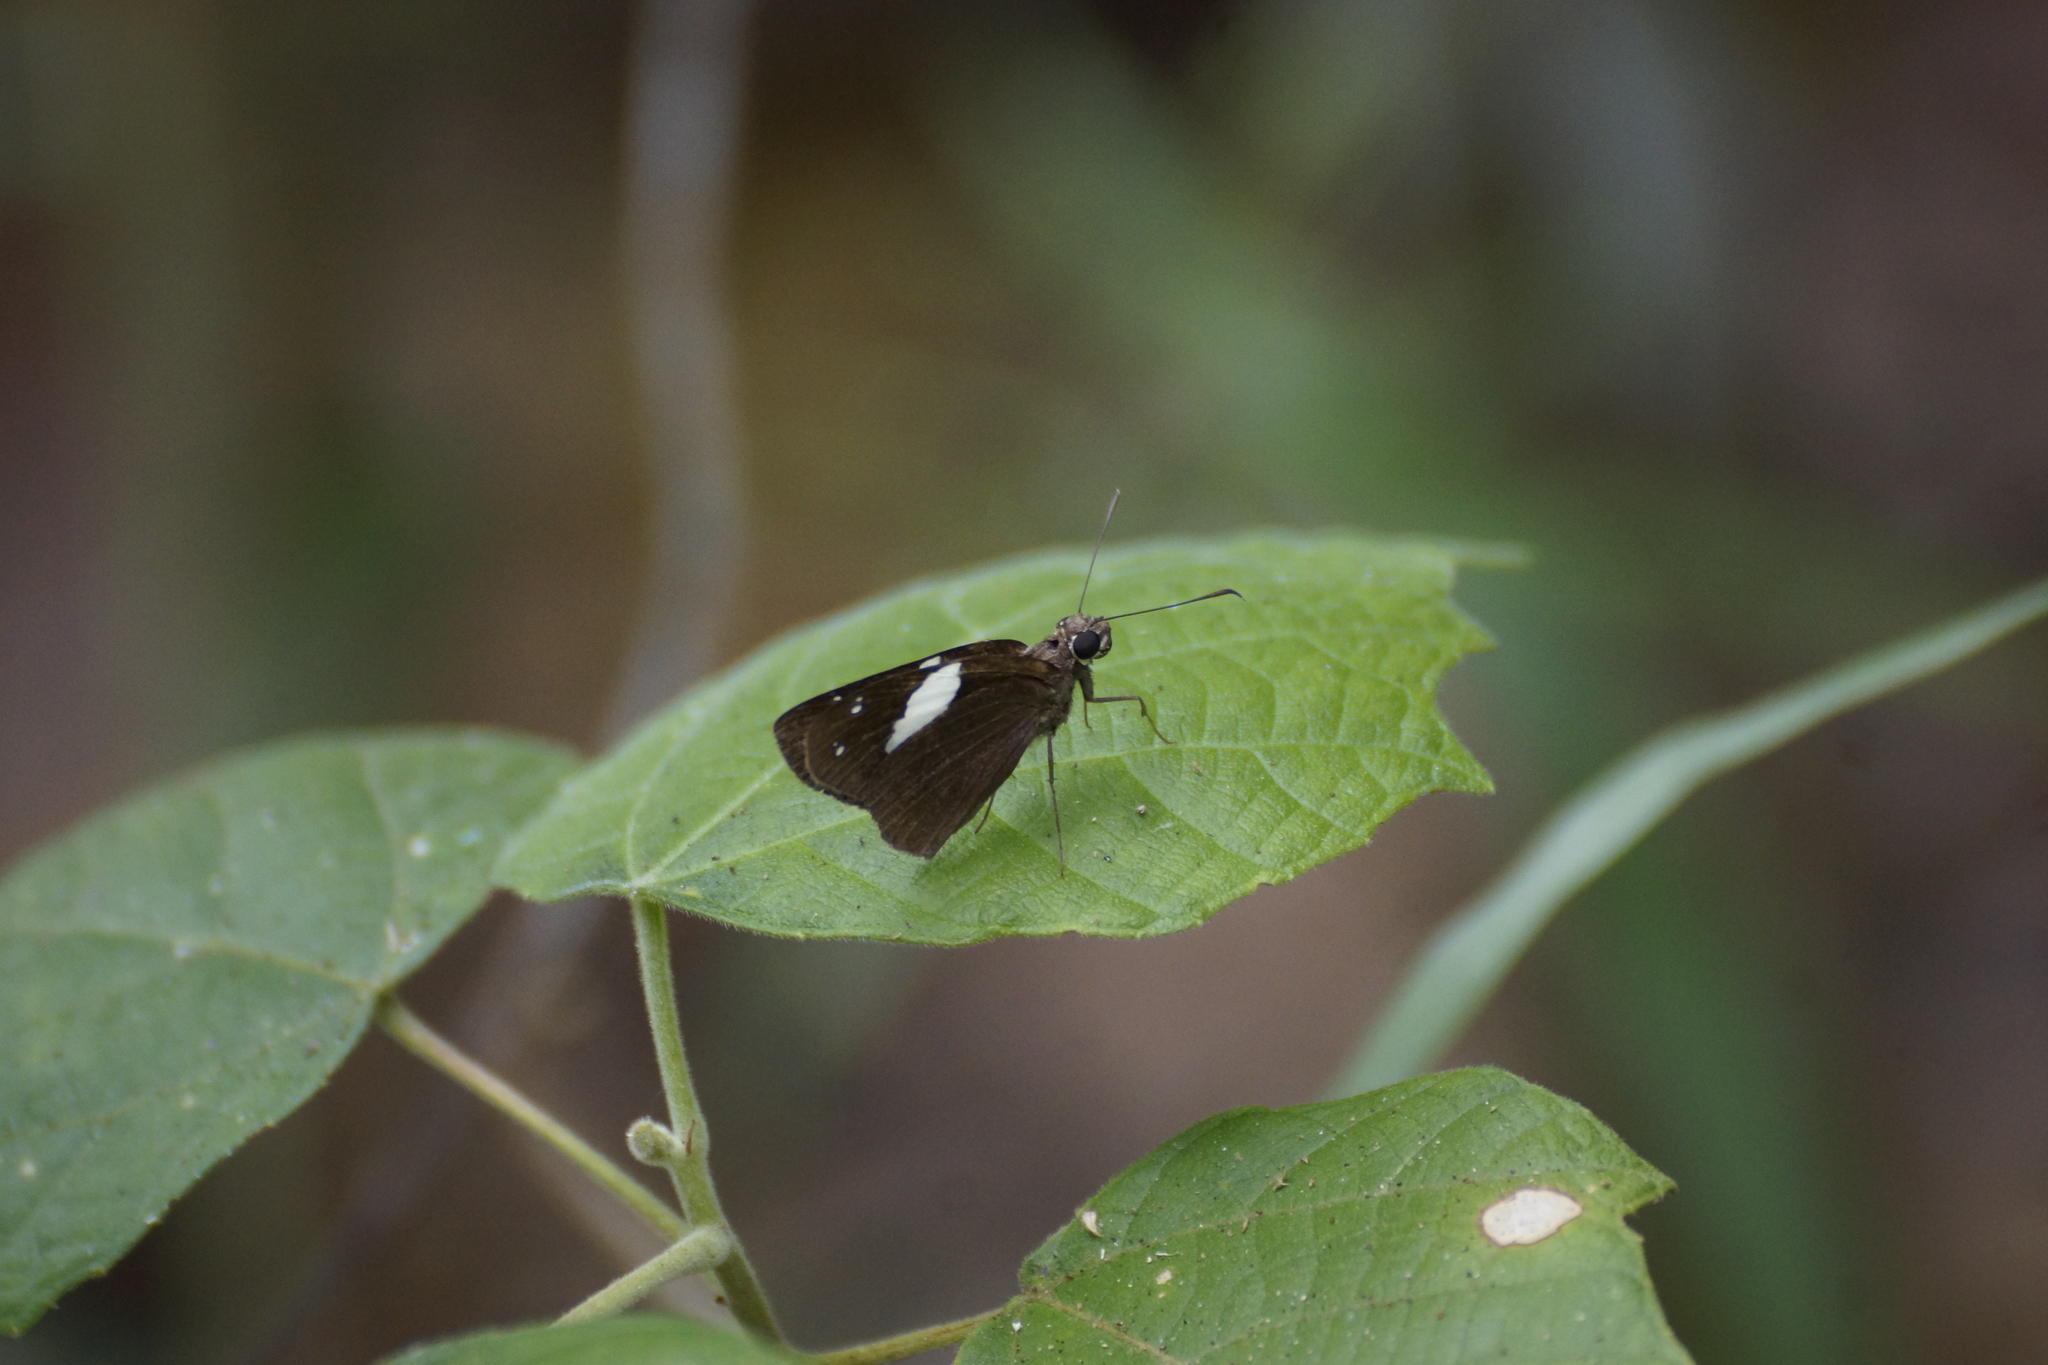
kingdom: Animalia
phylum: Arthropoda
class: Insecta
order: Lepidoptera
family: Hesperiidae
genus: Notocrypta
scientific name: Notocrypta waigensis
